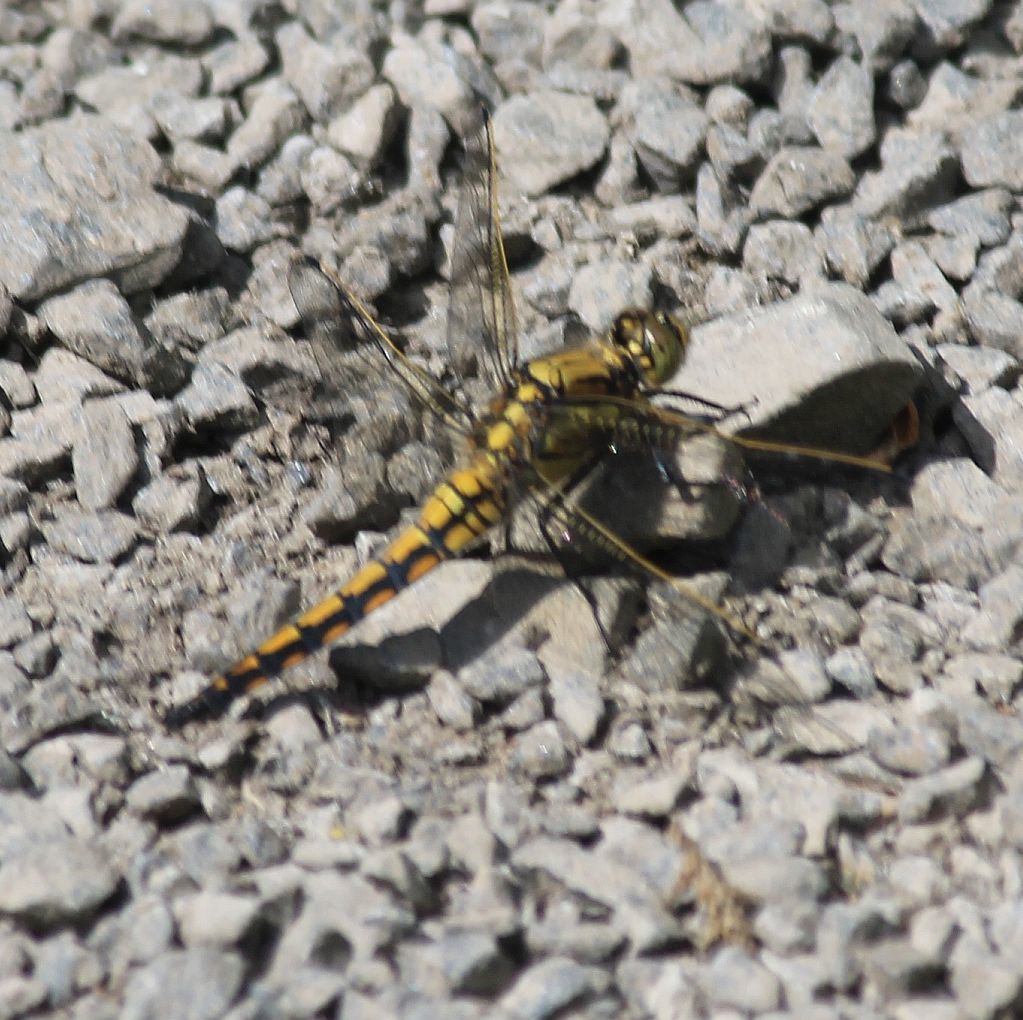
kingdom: Animalia
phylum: Arthropoda
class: Insecta
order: Odonata
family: Libellulidae
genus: Orthetrum
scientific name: Orthetrum cancellatum
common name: Black-tailed skimmer
